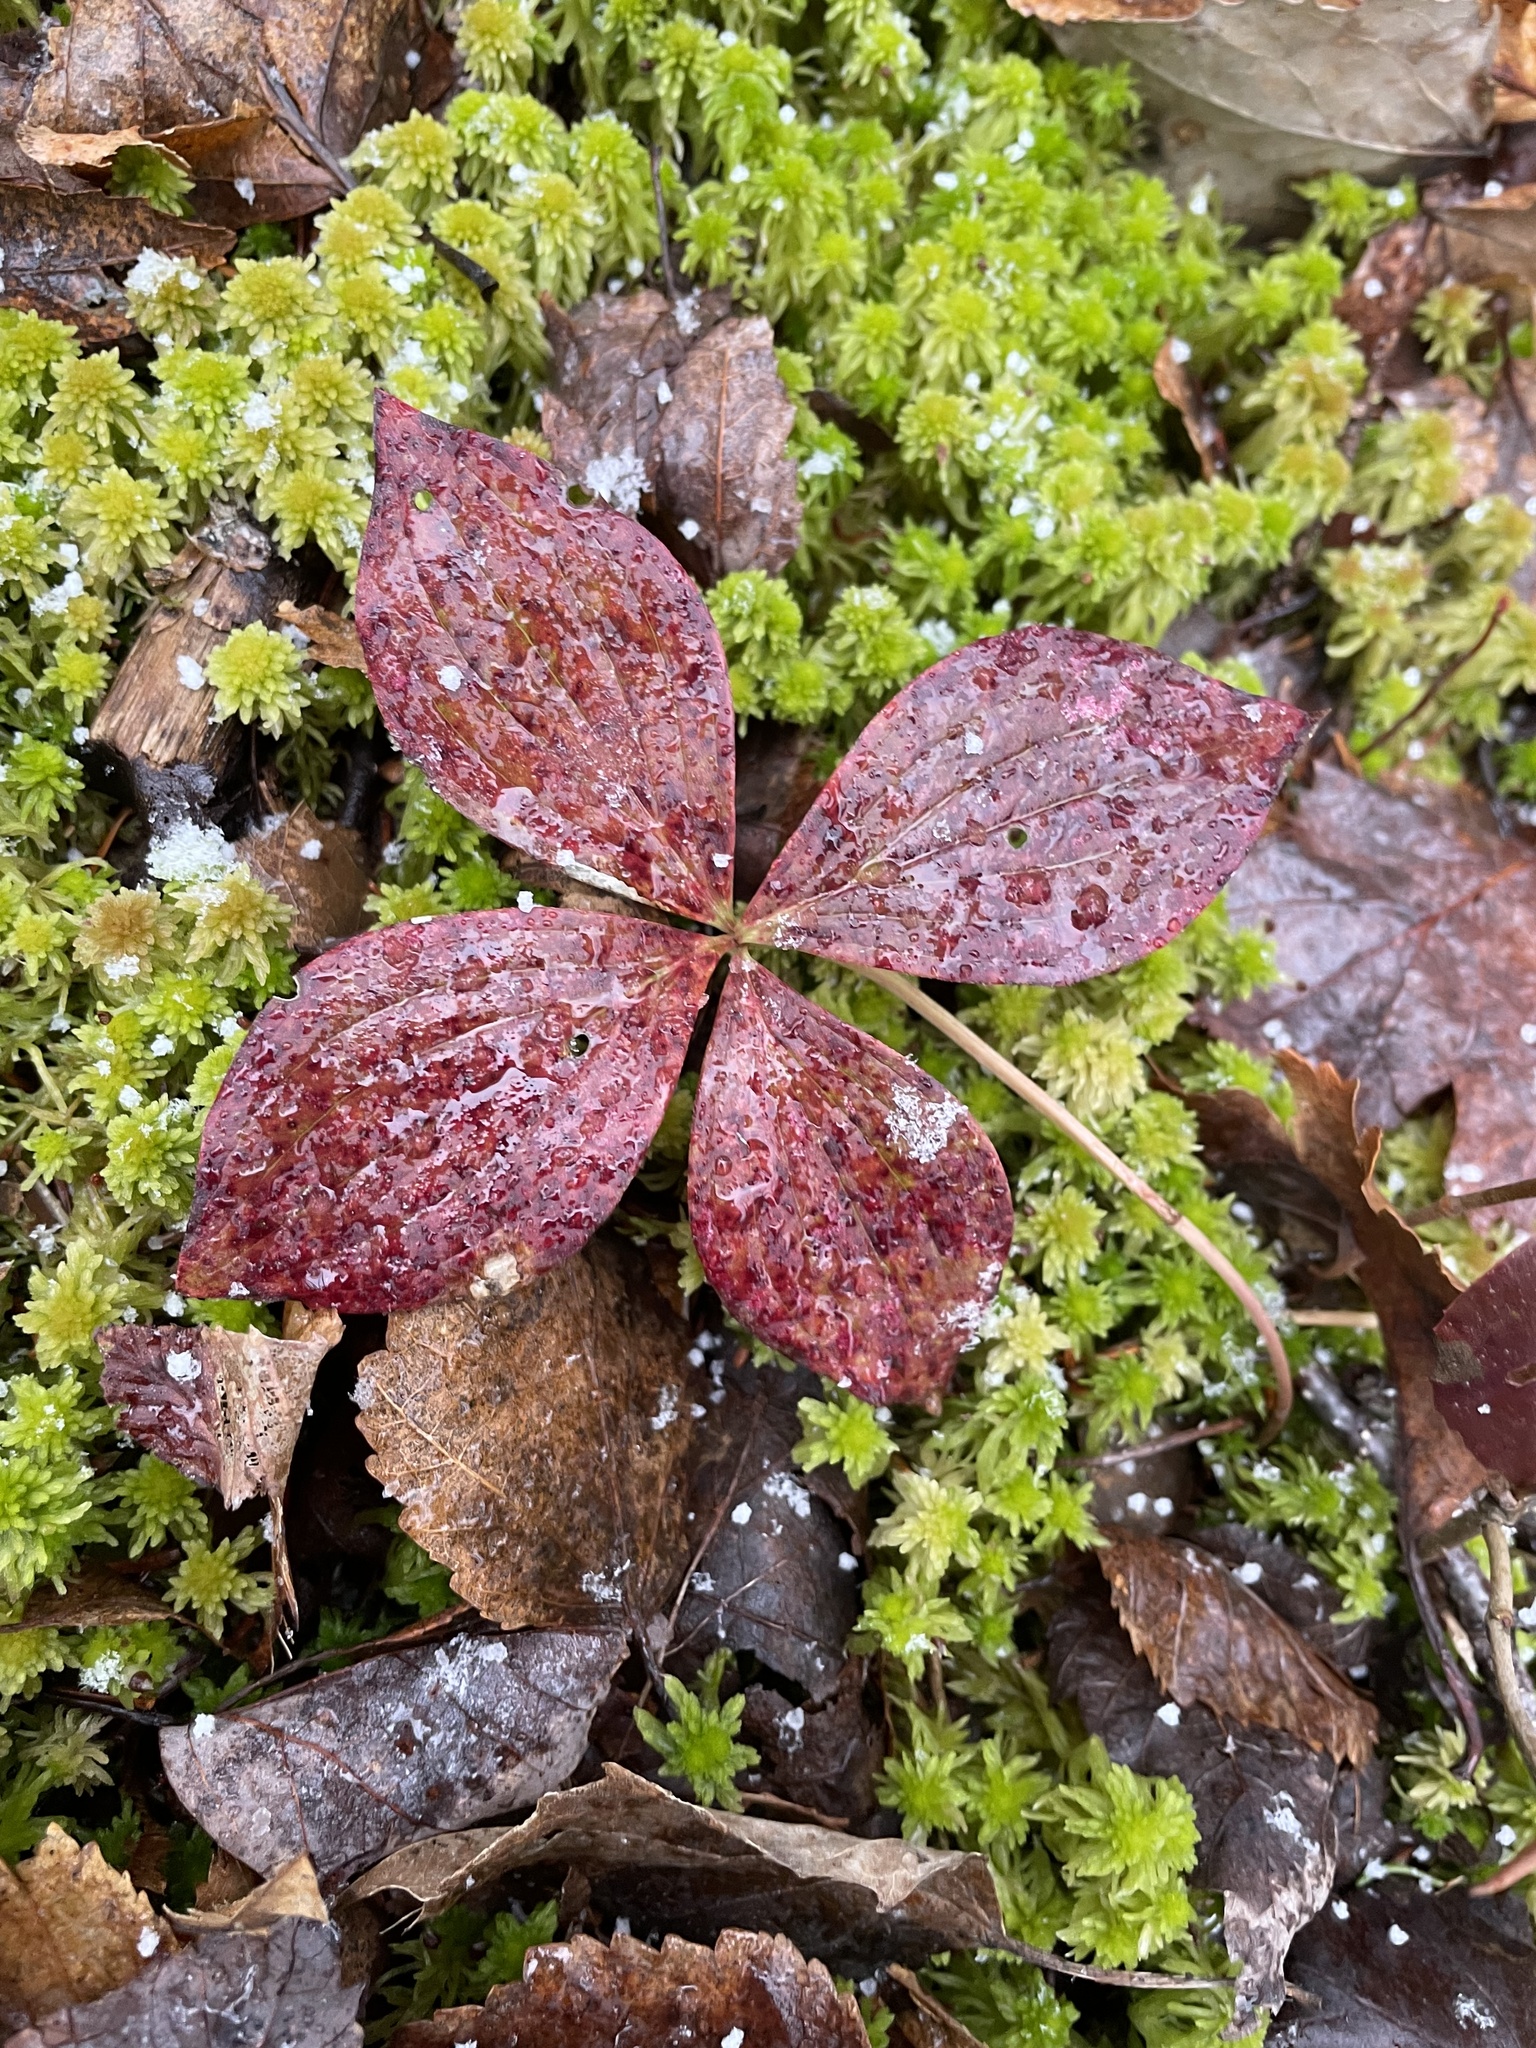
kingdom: Plantae
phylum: Tracheophyta
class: Magnoliopsida
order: Cornales
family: Cornaceae
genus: Cornus
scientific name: Cornus canadensis
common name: Creeping dogwood
